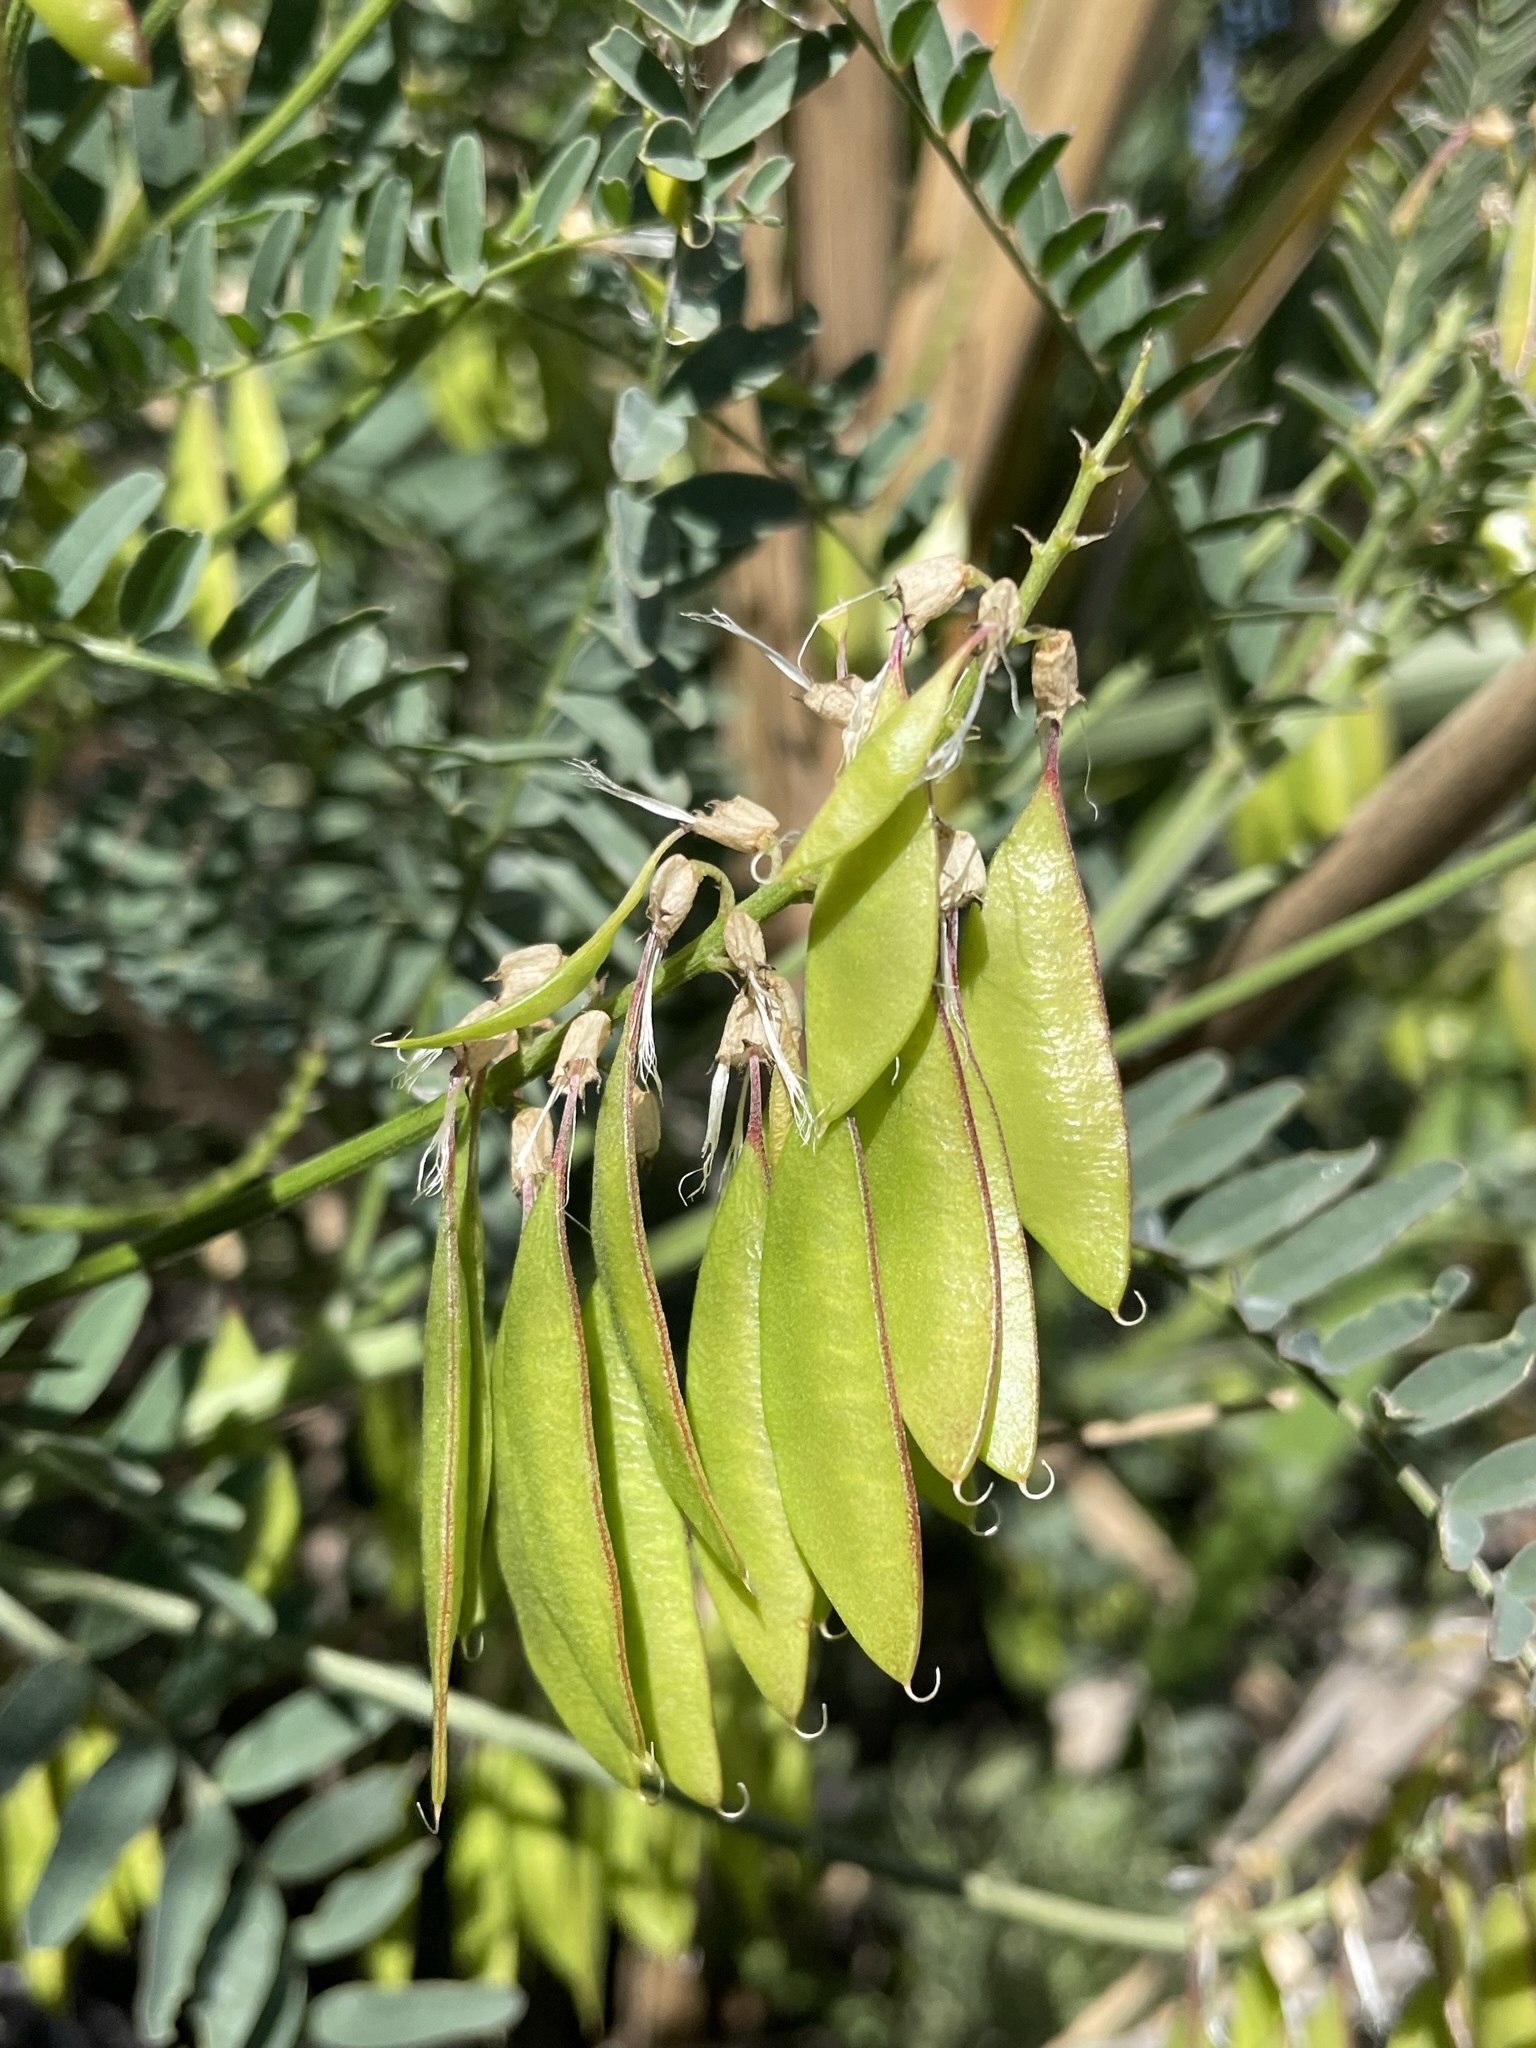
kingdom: Plantae
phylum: Tracheophyta
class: Magnoliopsida
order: Fabales
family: Fabaceae
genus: Astragalus
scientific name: Astragalus trichopodus
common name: Santa barbara milk-vetch
